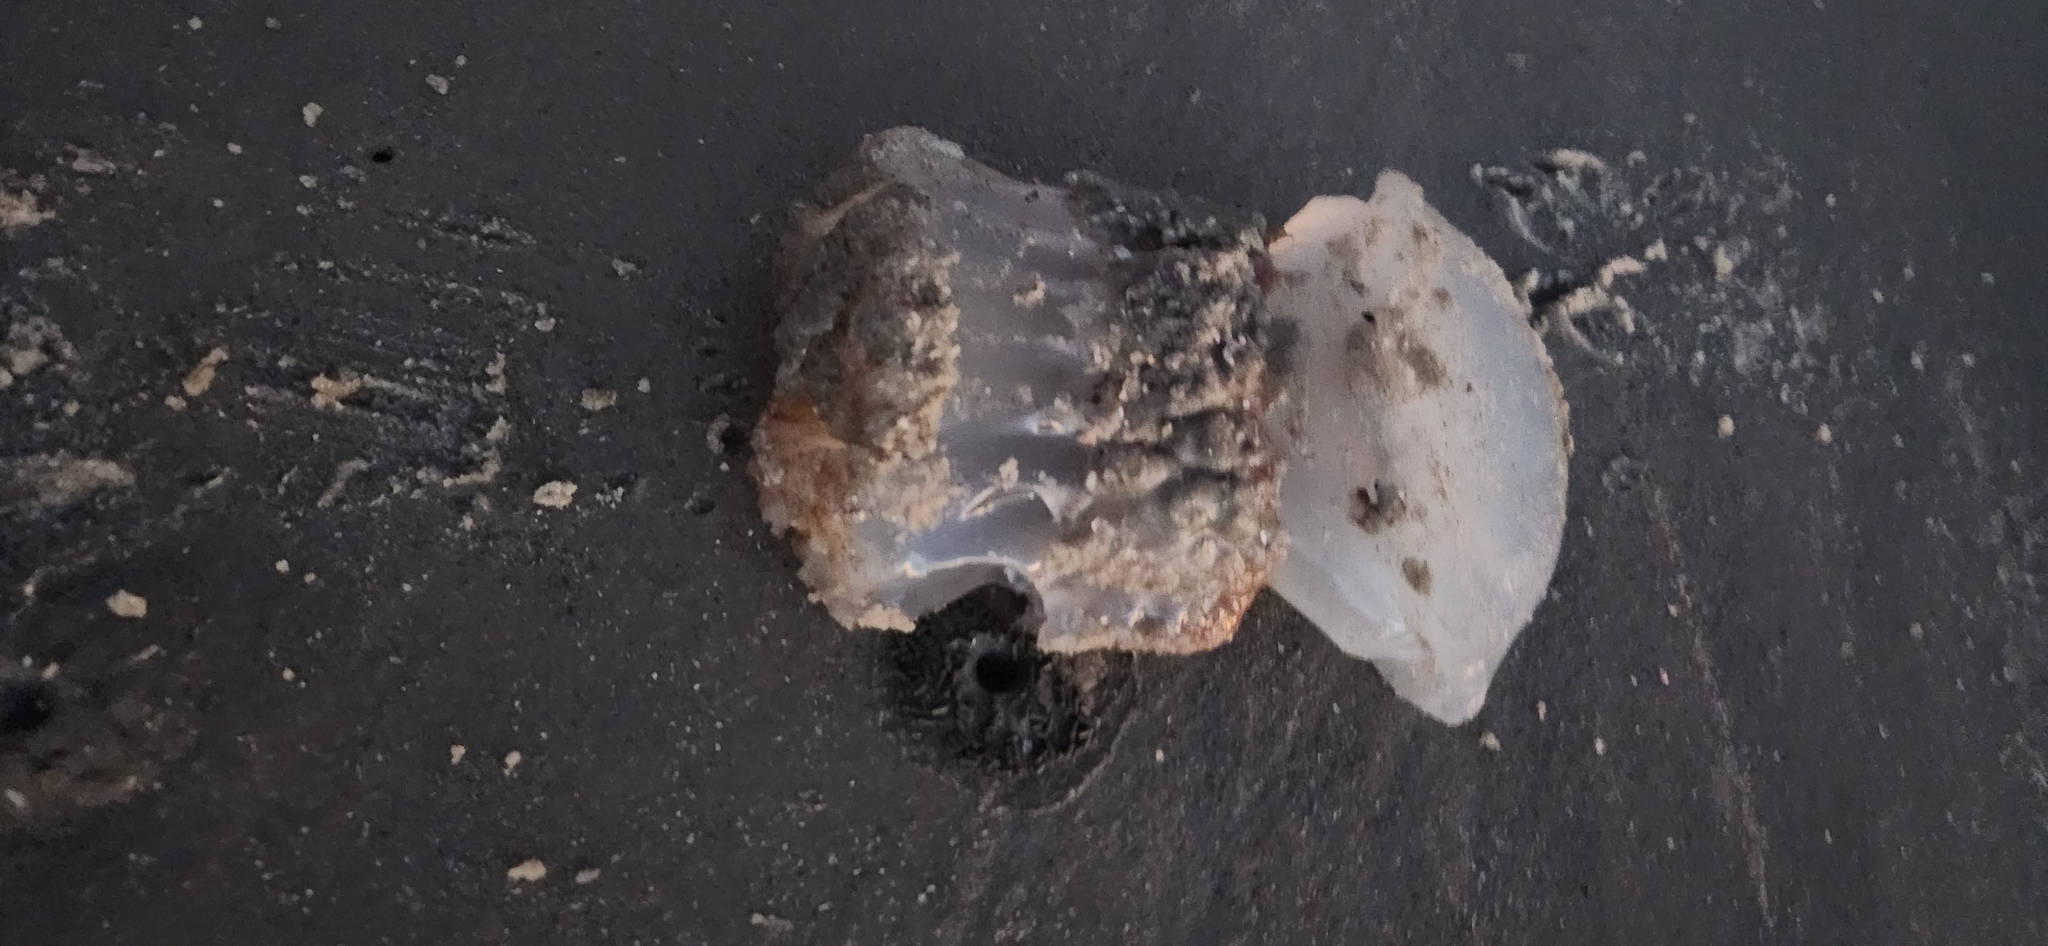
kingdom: Animalia
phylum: Cnidaria
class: Scyphozoa
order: Rhizostomeae
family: Stomolophidae
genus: Stomolophus
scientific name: Stomolophus meleagris
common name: Cabbagehead
